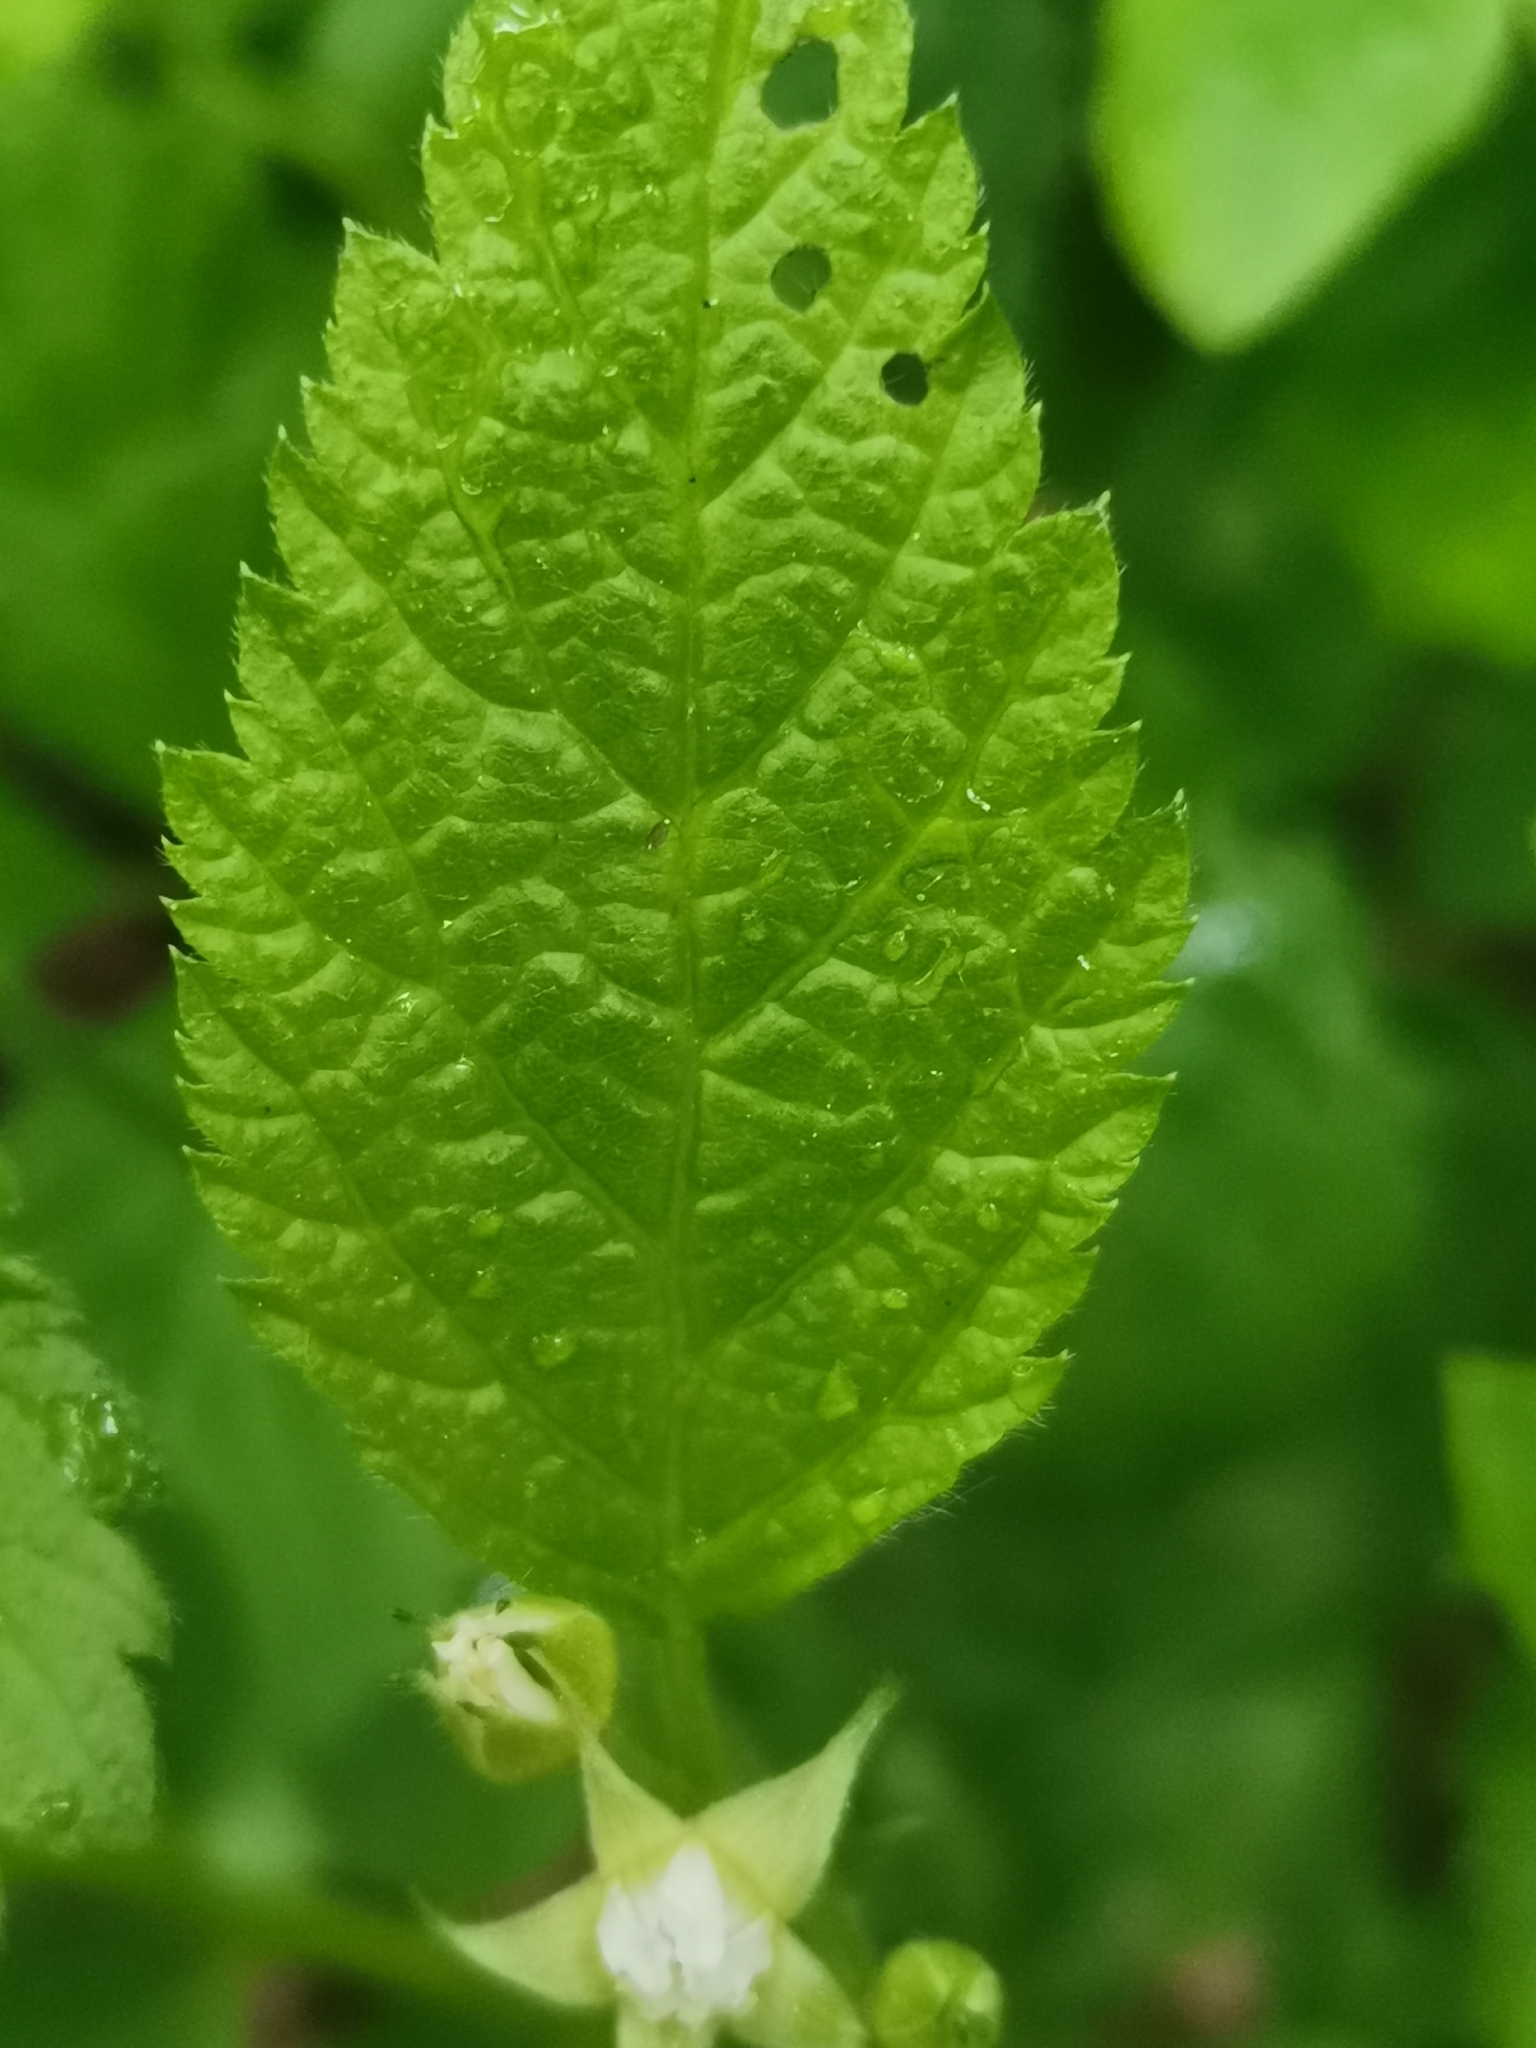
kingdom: Plantae
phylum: Tracheophyta
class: Magnoliopsida
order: Rosales
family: Rosaceae
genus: Rubus
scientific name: Rubus saxatilis
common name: Stone bramble
